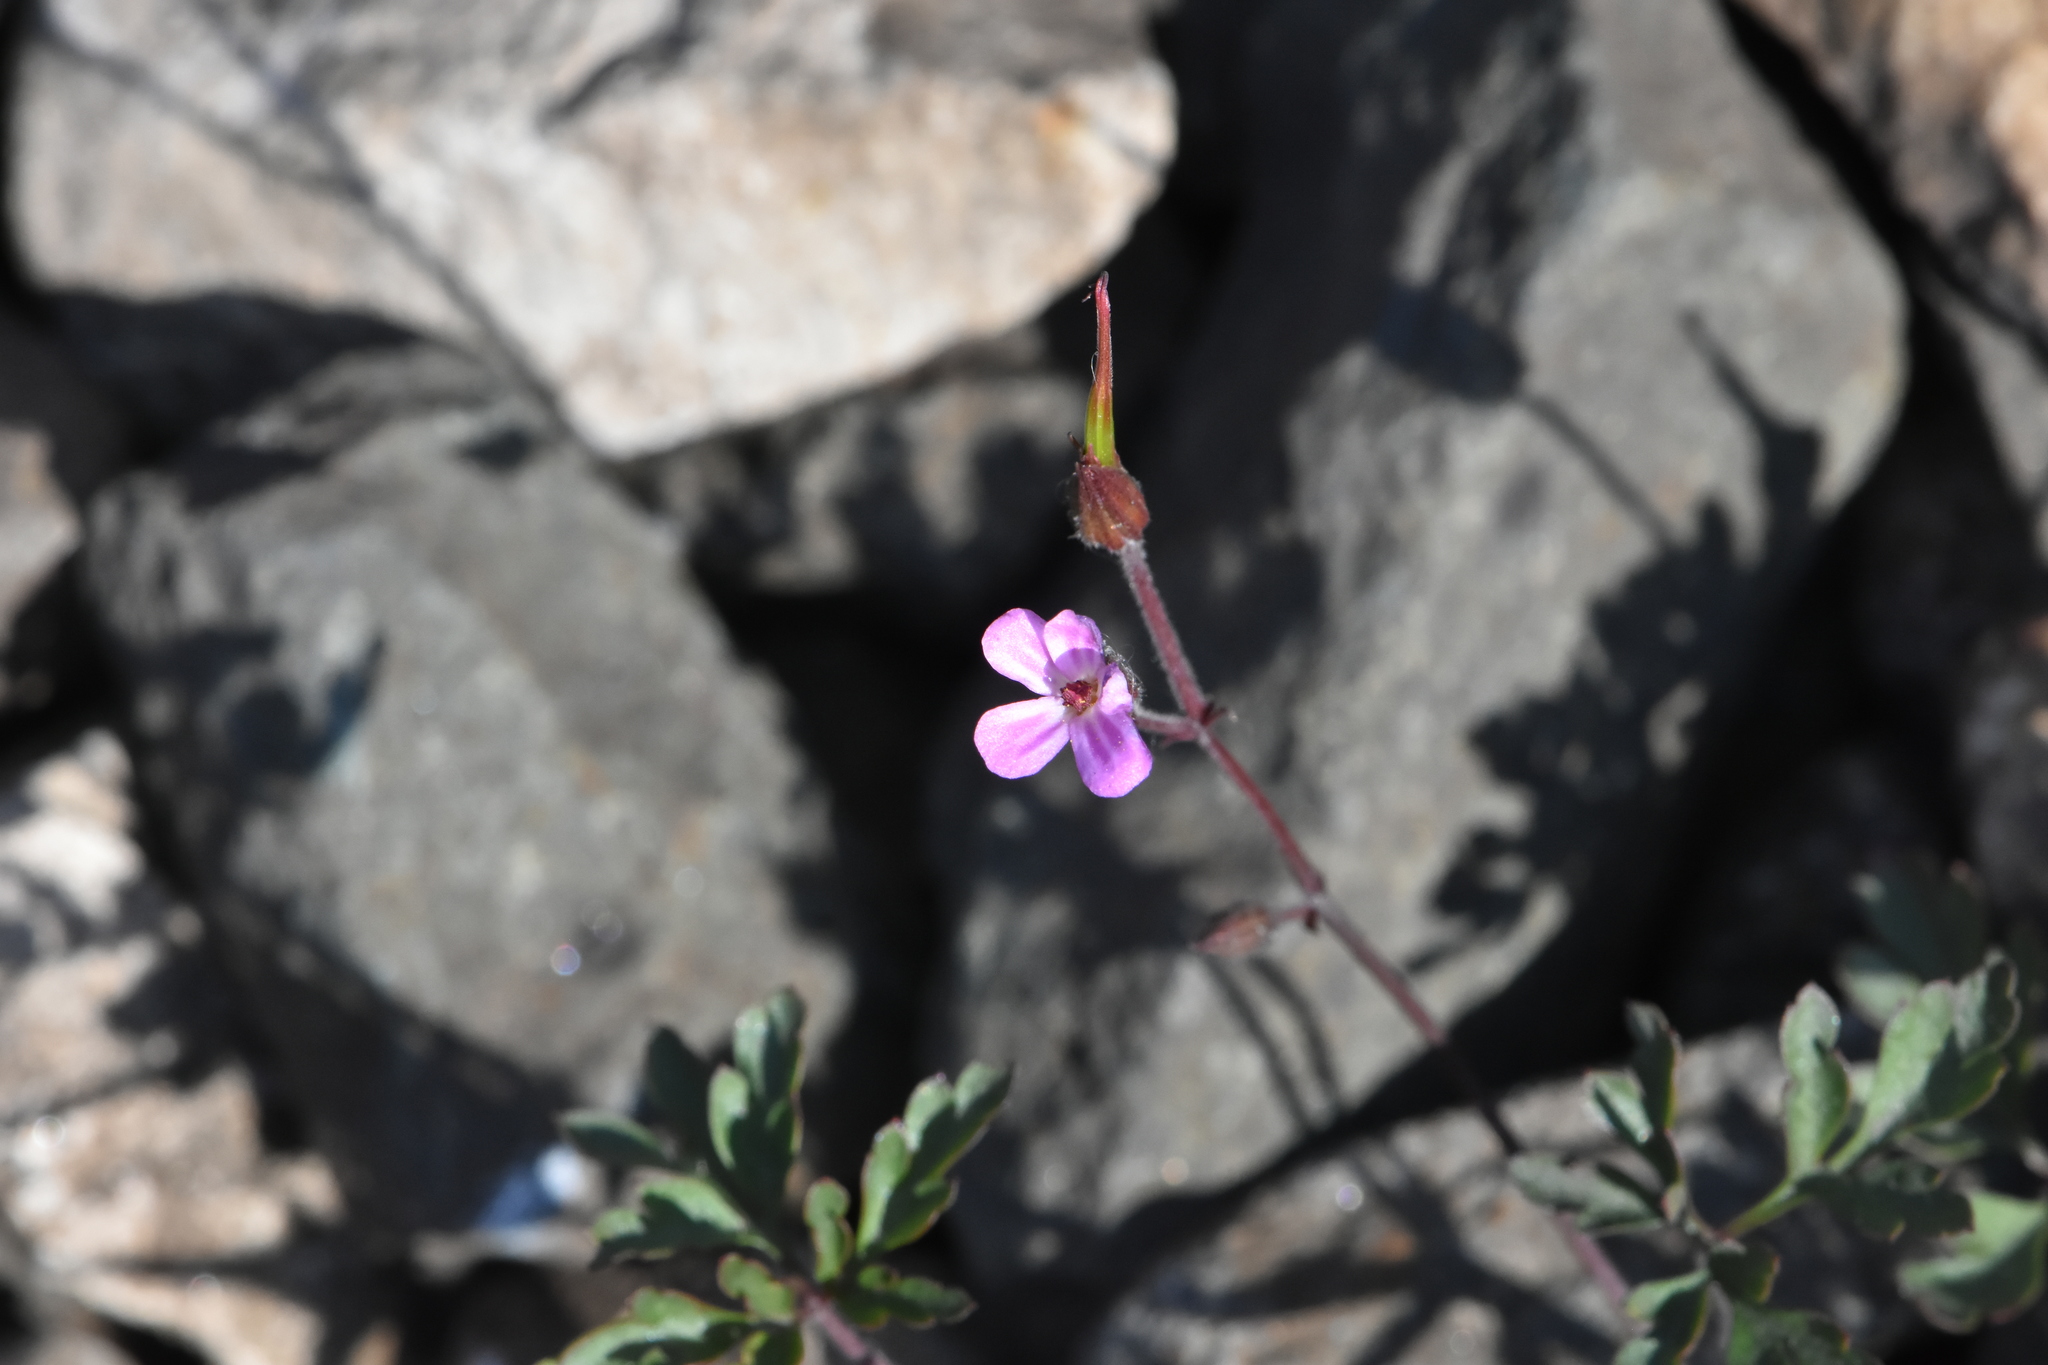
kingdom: Plantae
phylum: Tracheophyta
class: Magnoliopsida
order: Geraniales
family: Geraniaceae
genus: Geranium
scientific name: Geranium robertianum
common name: Herb-robert
